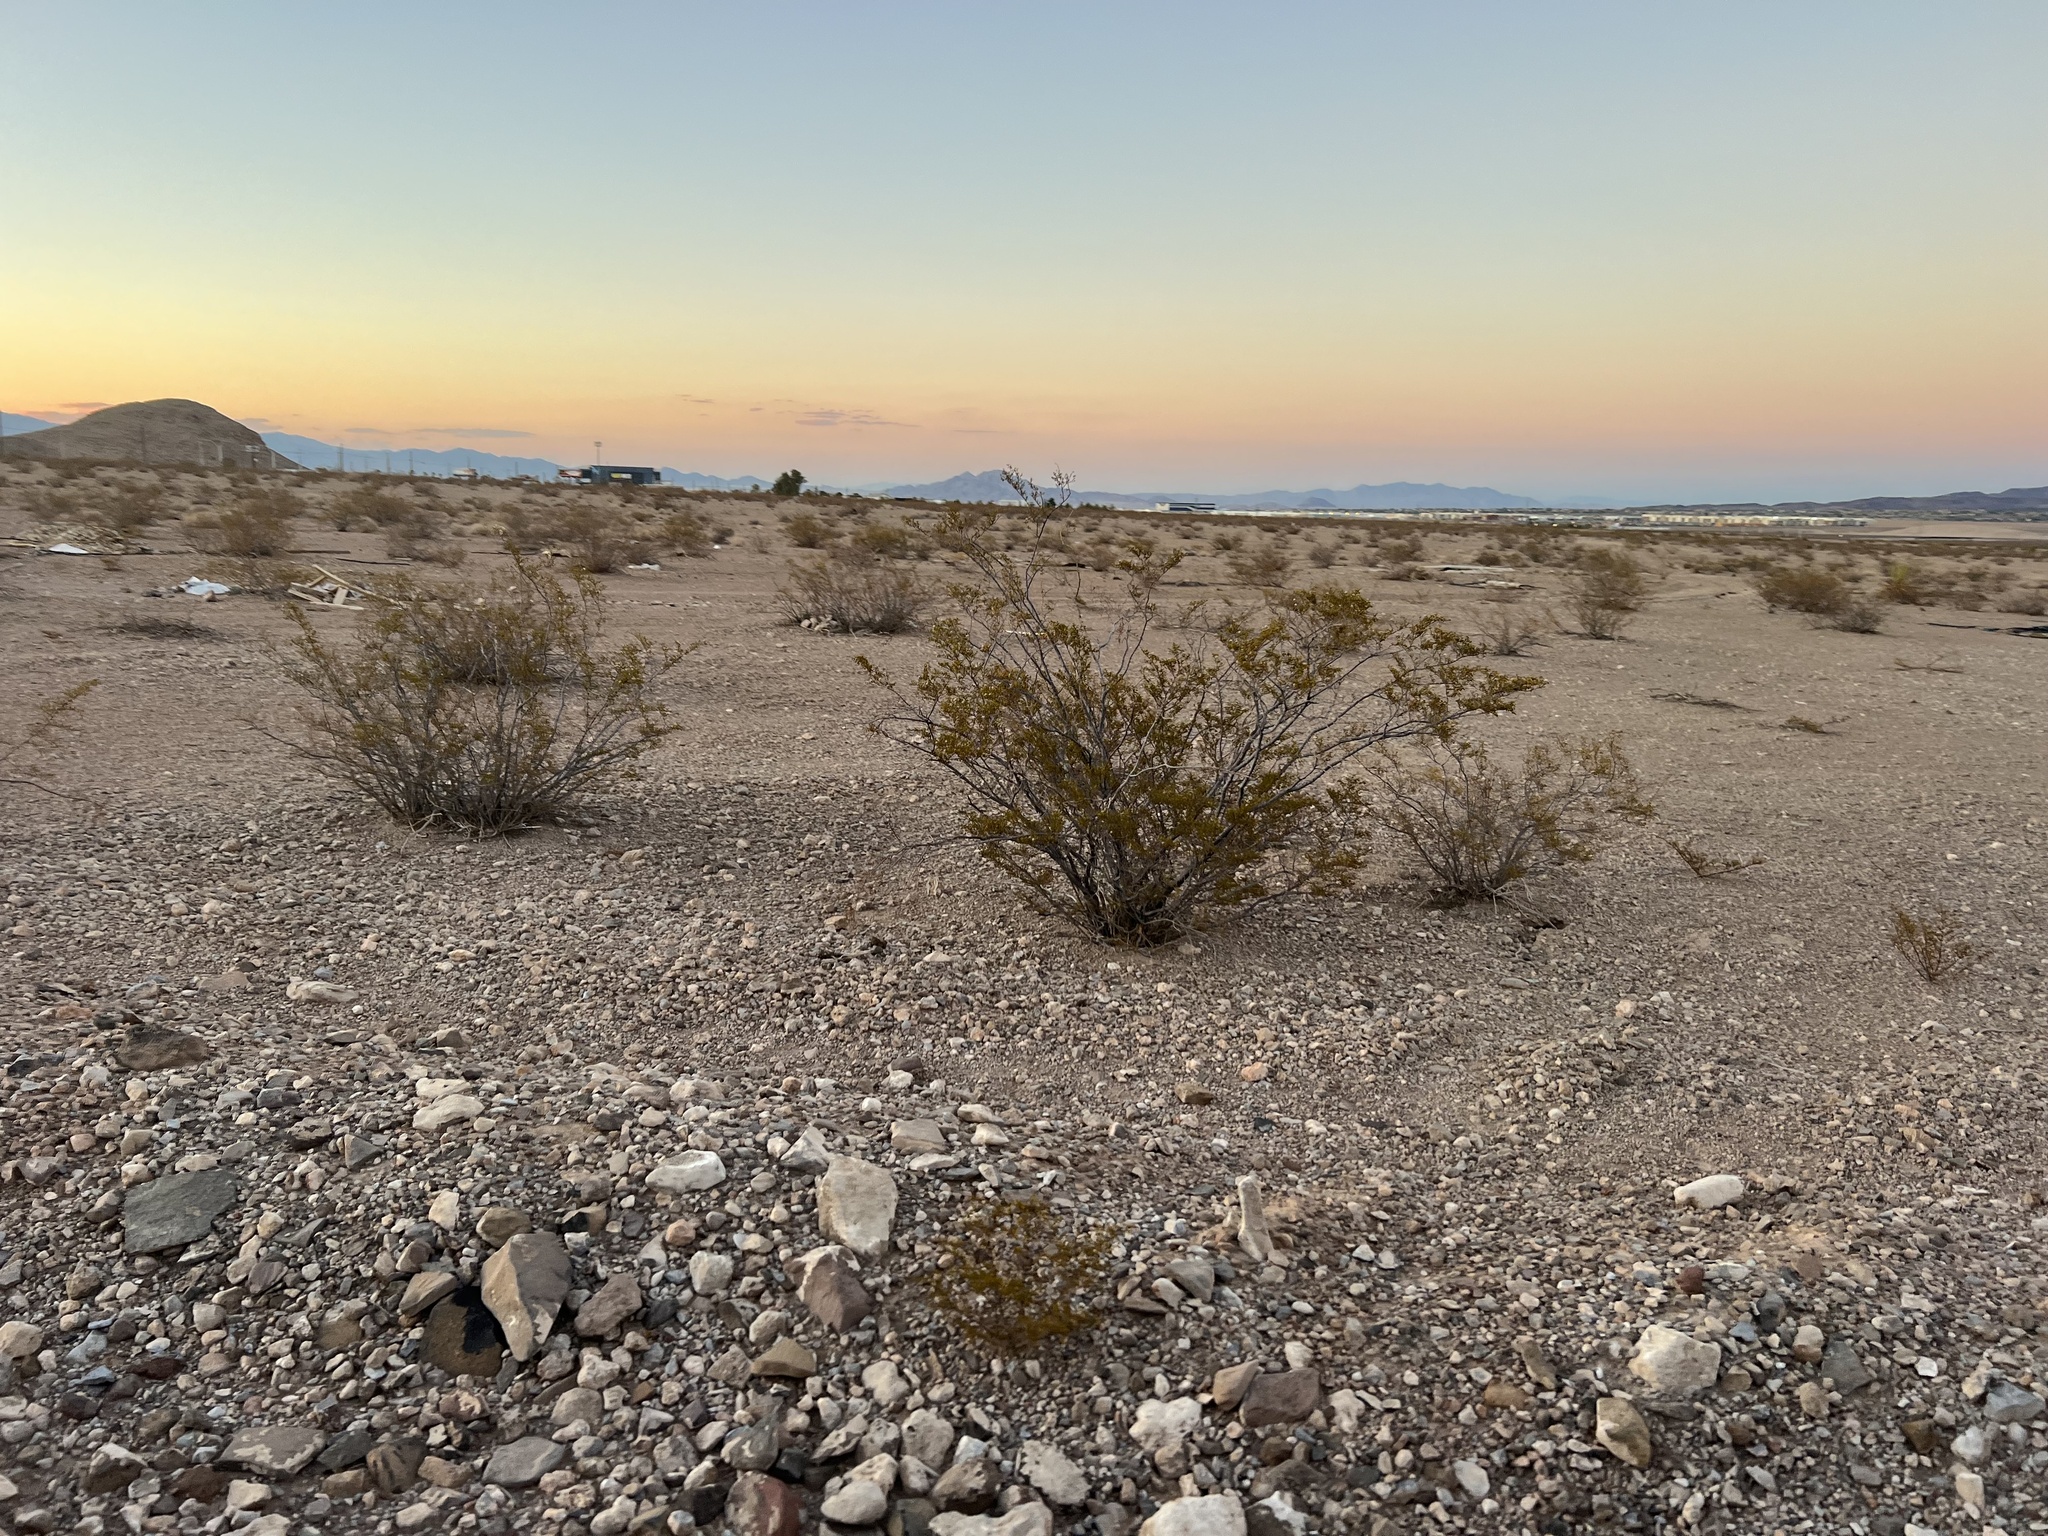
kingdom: Plantae
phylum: Tracheophyta
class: Magnoliopsida
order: Zygophyllales
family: Zygophyllaceae
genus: Larrea
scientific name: Larrea tridentata
